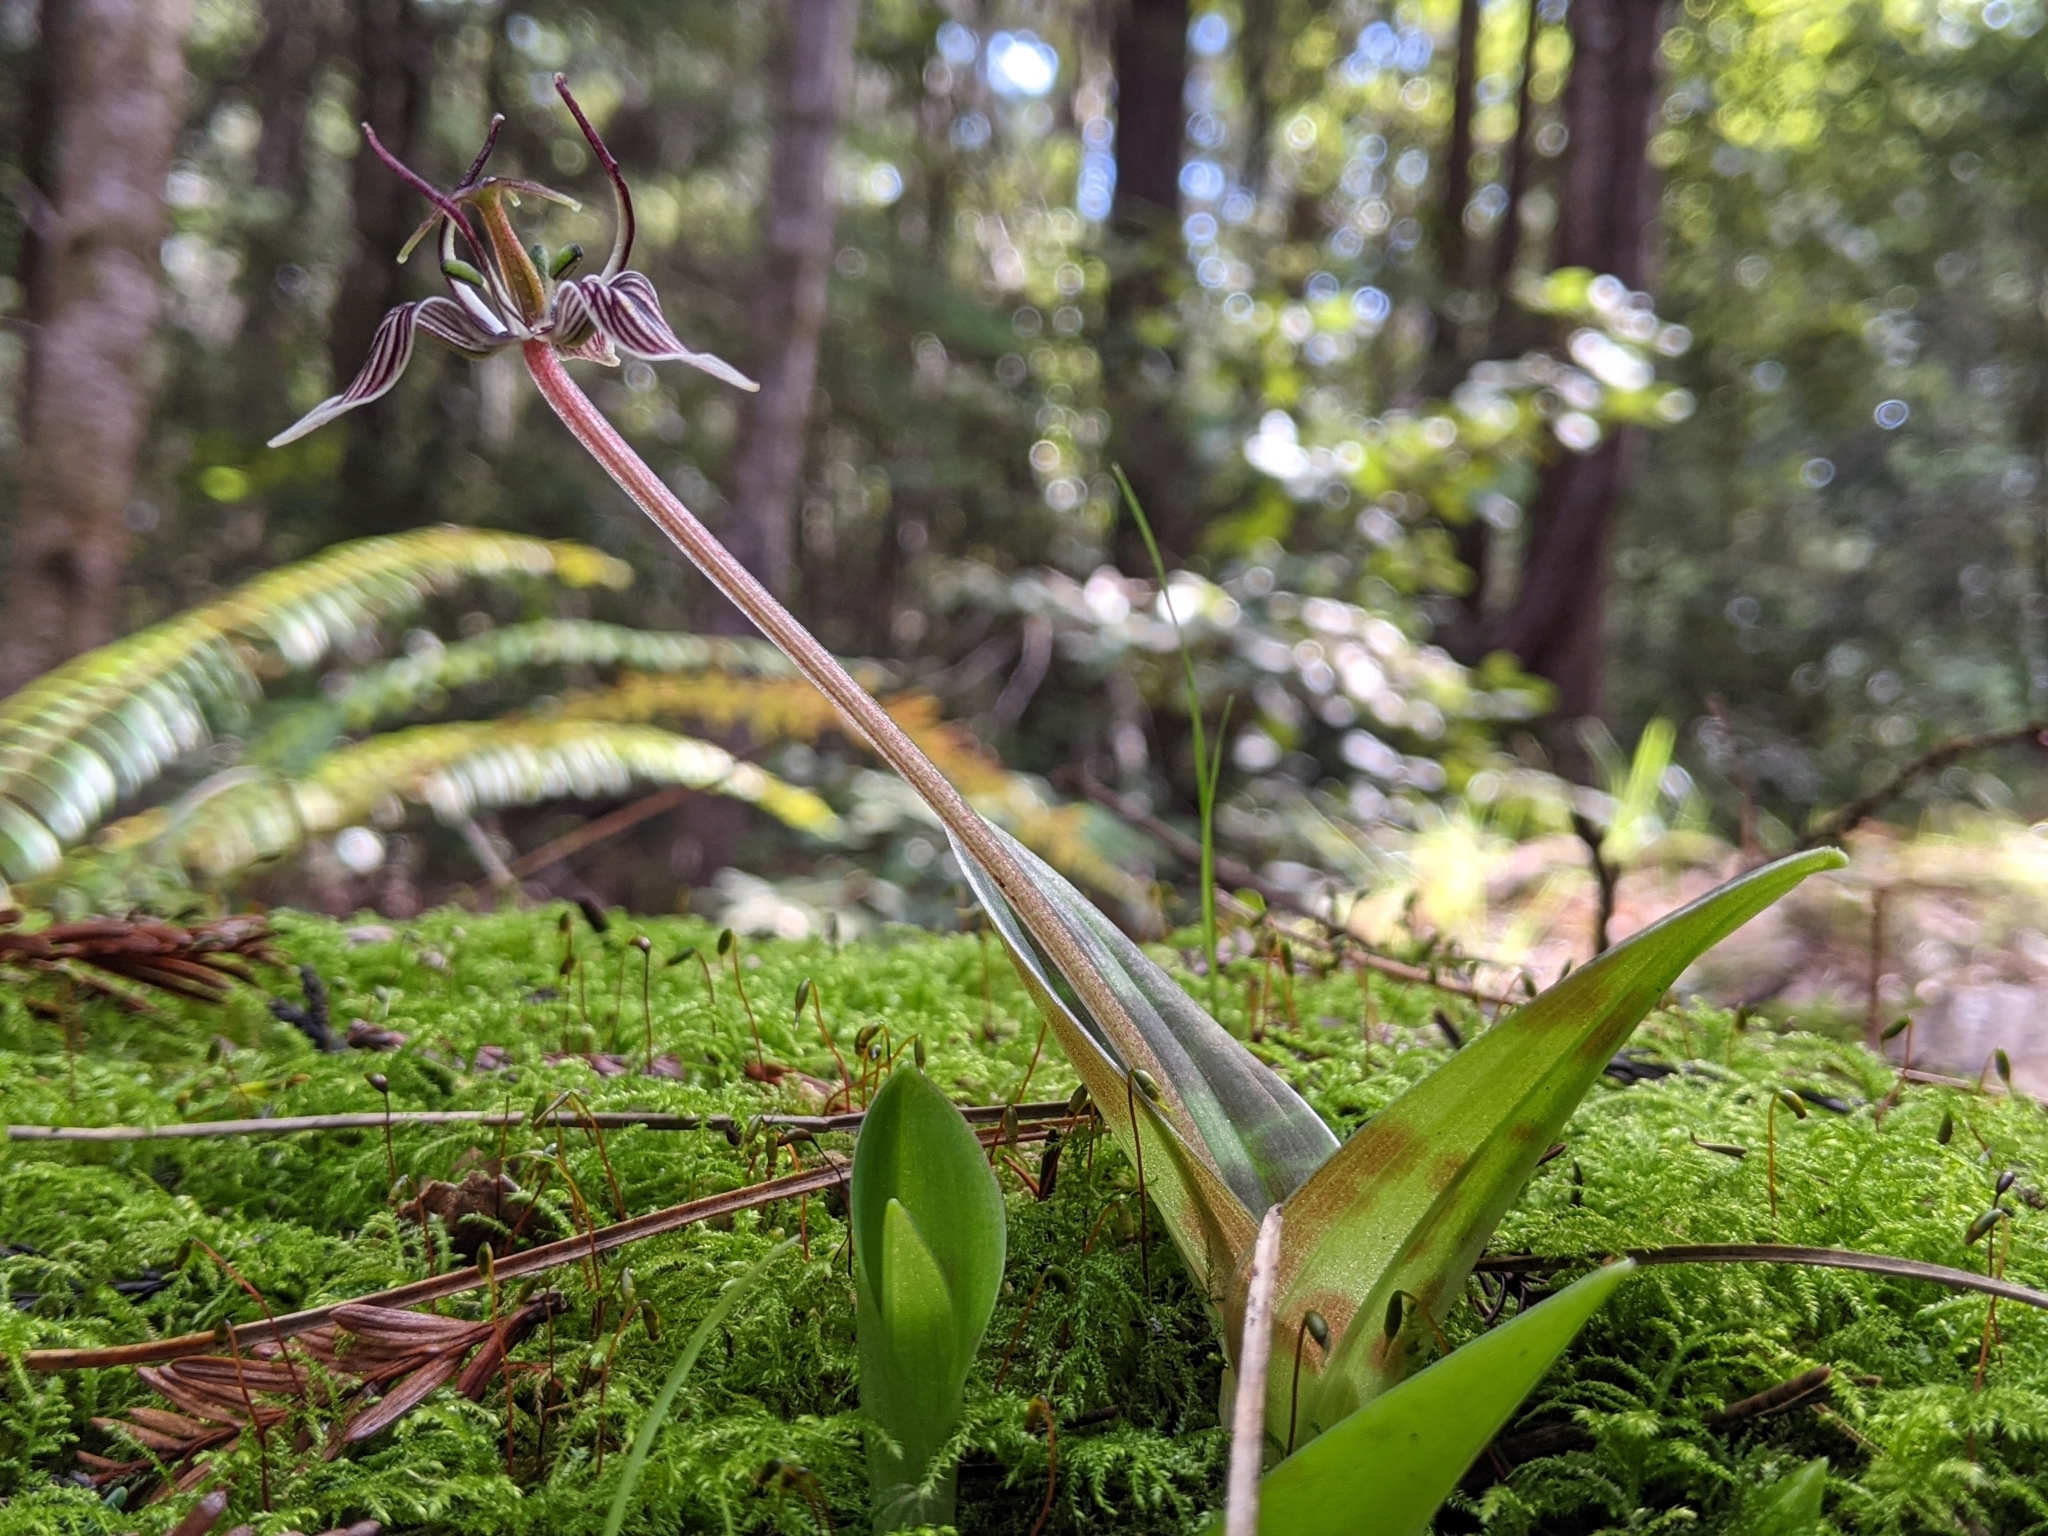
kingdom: Plantae
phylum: Tracheophyta
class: Liliopsida
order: Liliales
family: Liliaceae
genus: Scoliopus
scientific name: Scoliopus bigelovii
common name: Foetid adder's-tongue
